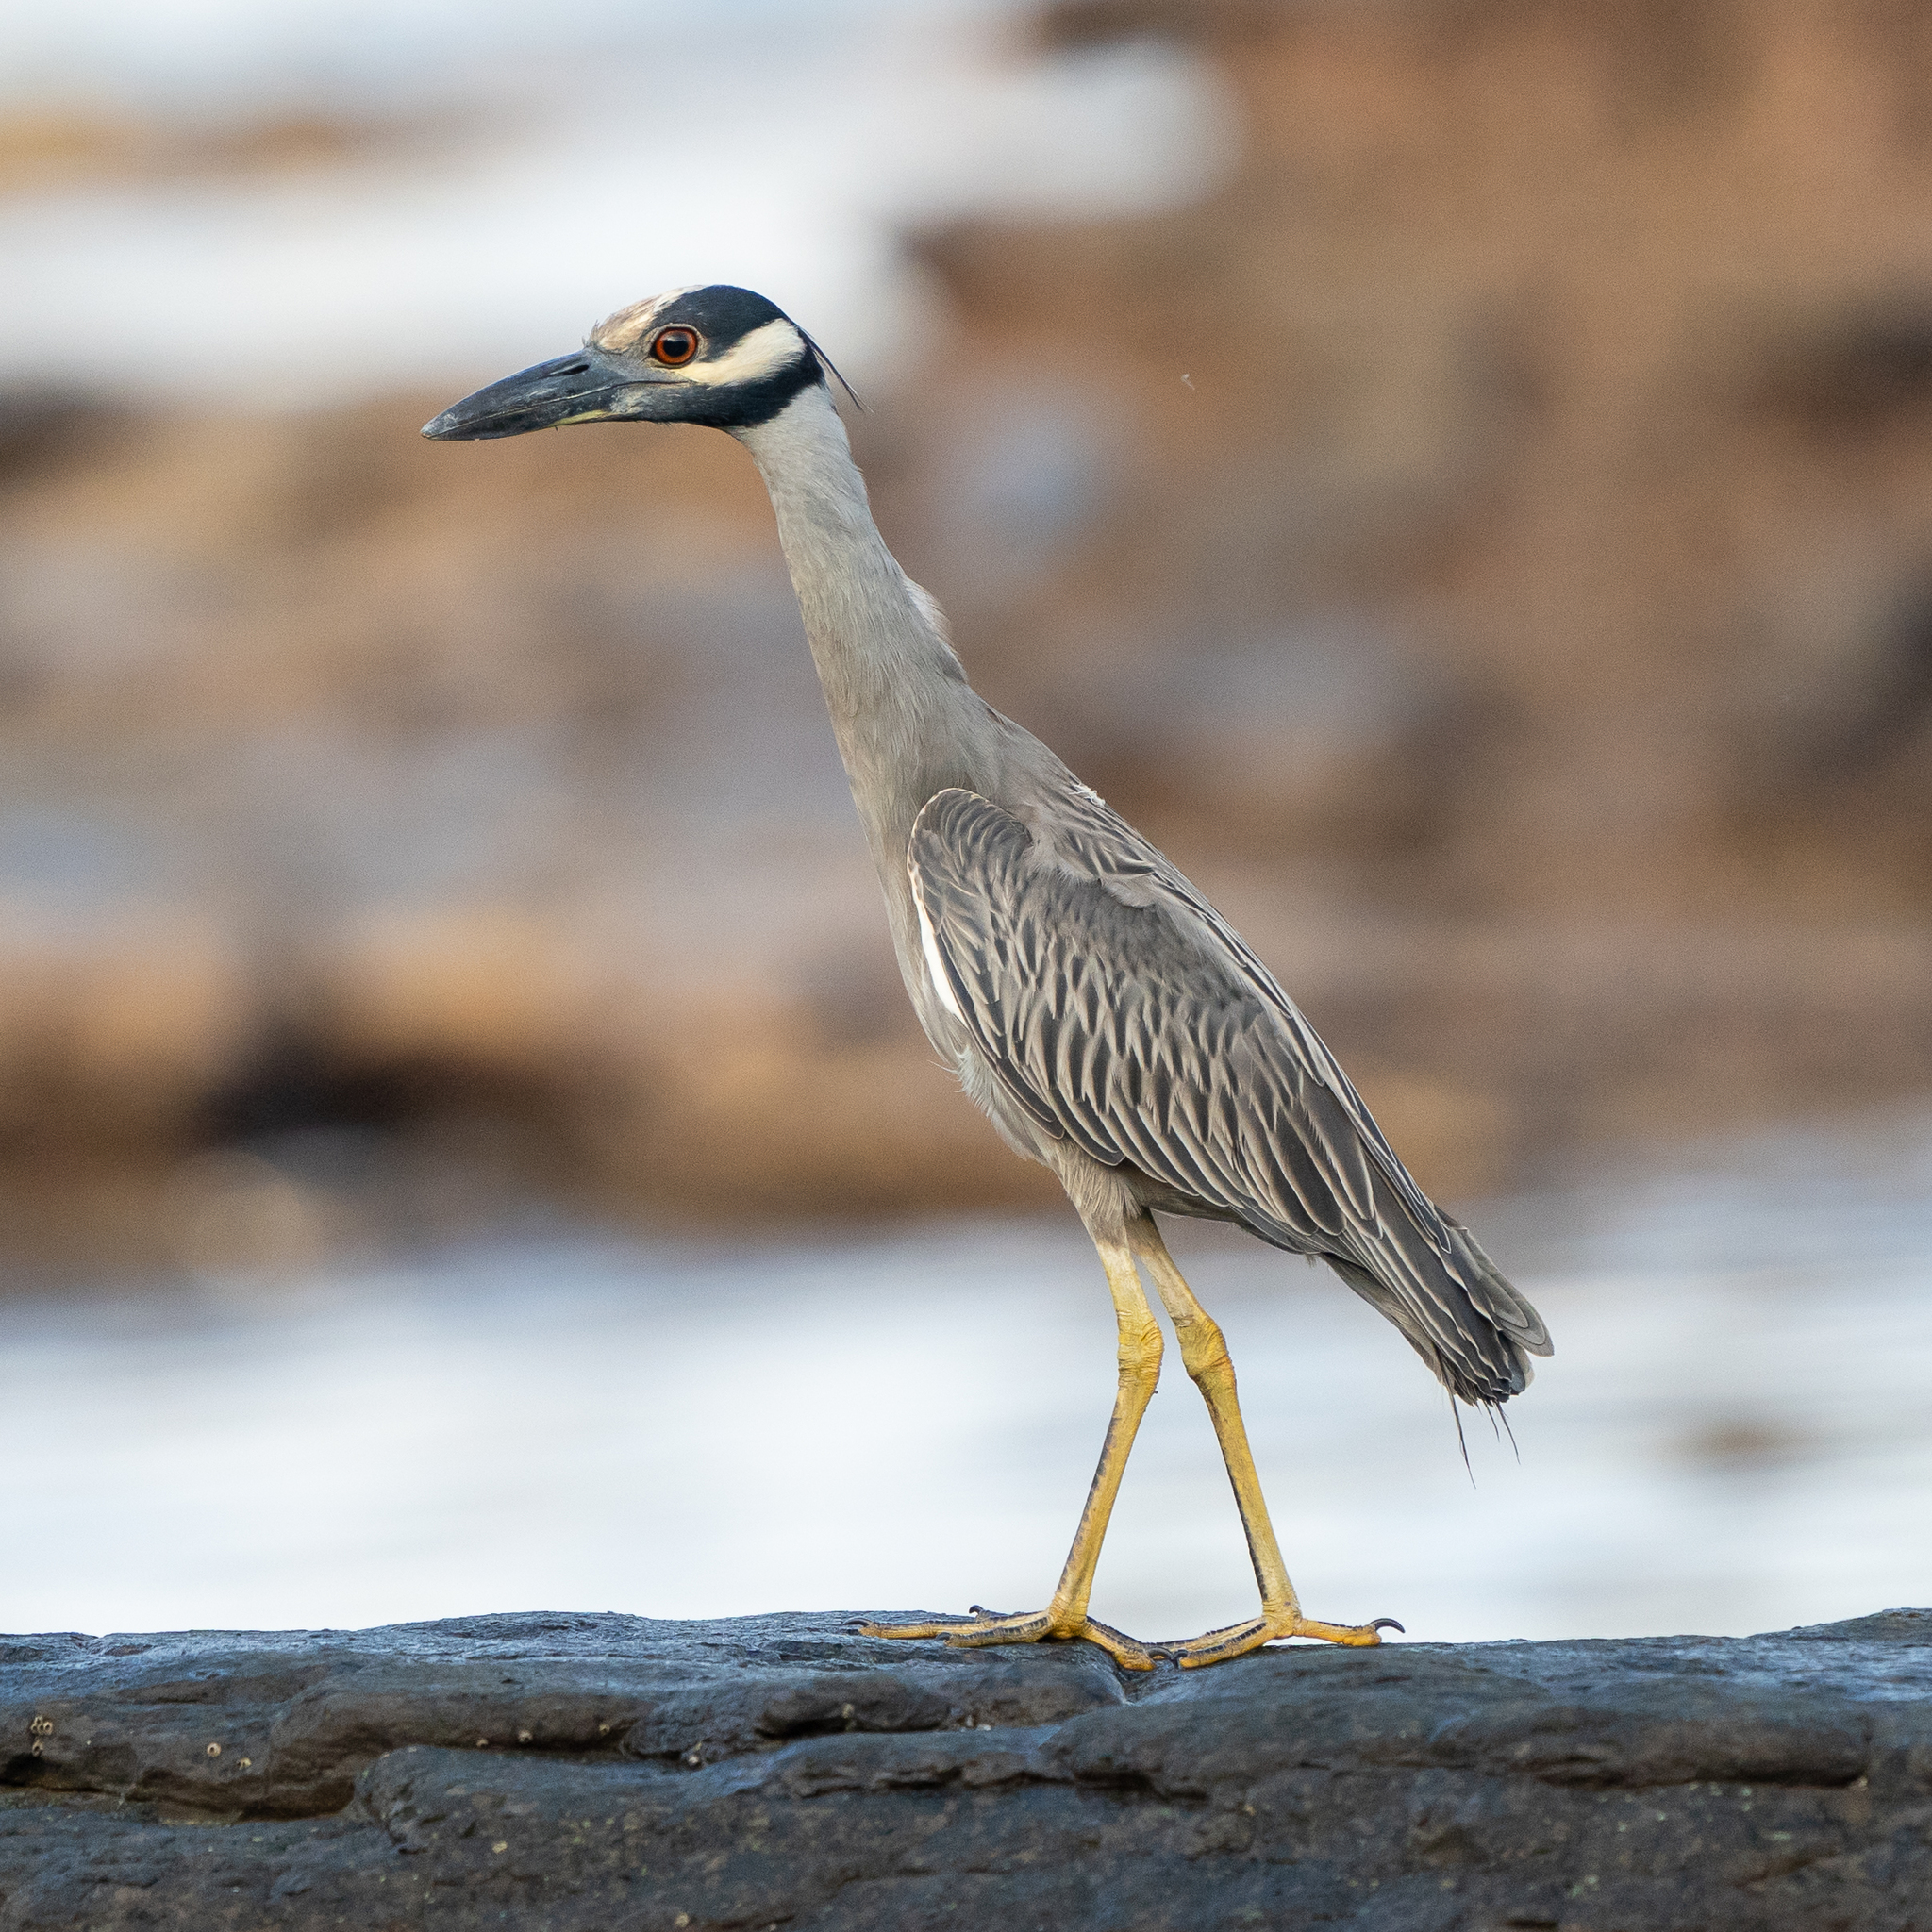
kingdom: Animalia
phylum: Chordata
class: Aves
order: Pelecaniformes
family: Ardeidae
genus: Nyctanassa
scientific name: Nyctanassa violacea
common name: Yellow-crowned night heron
